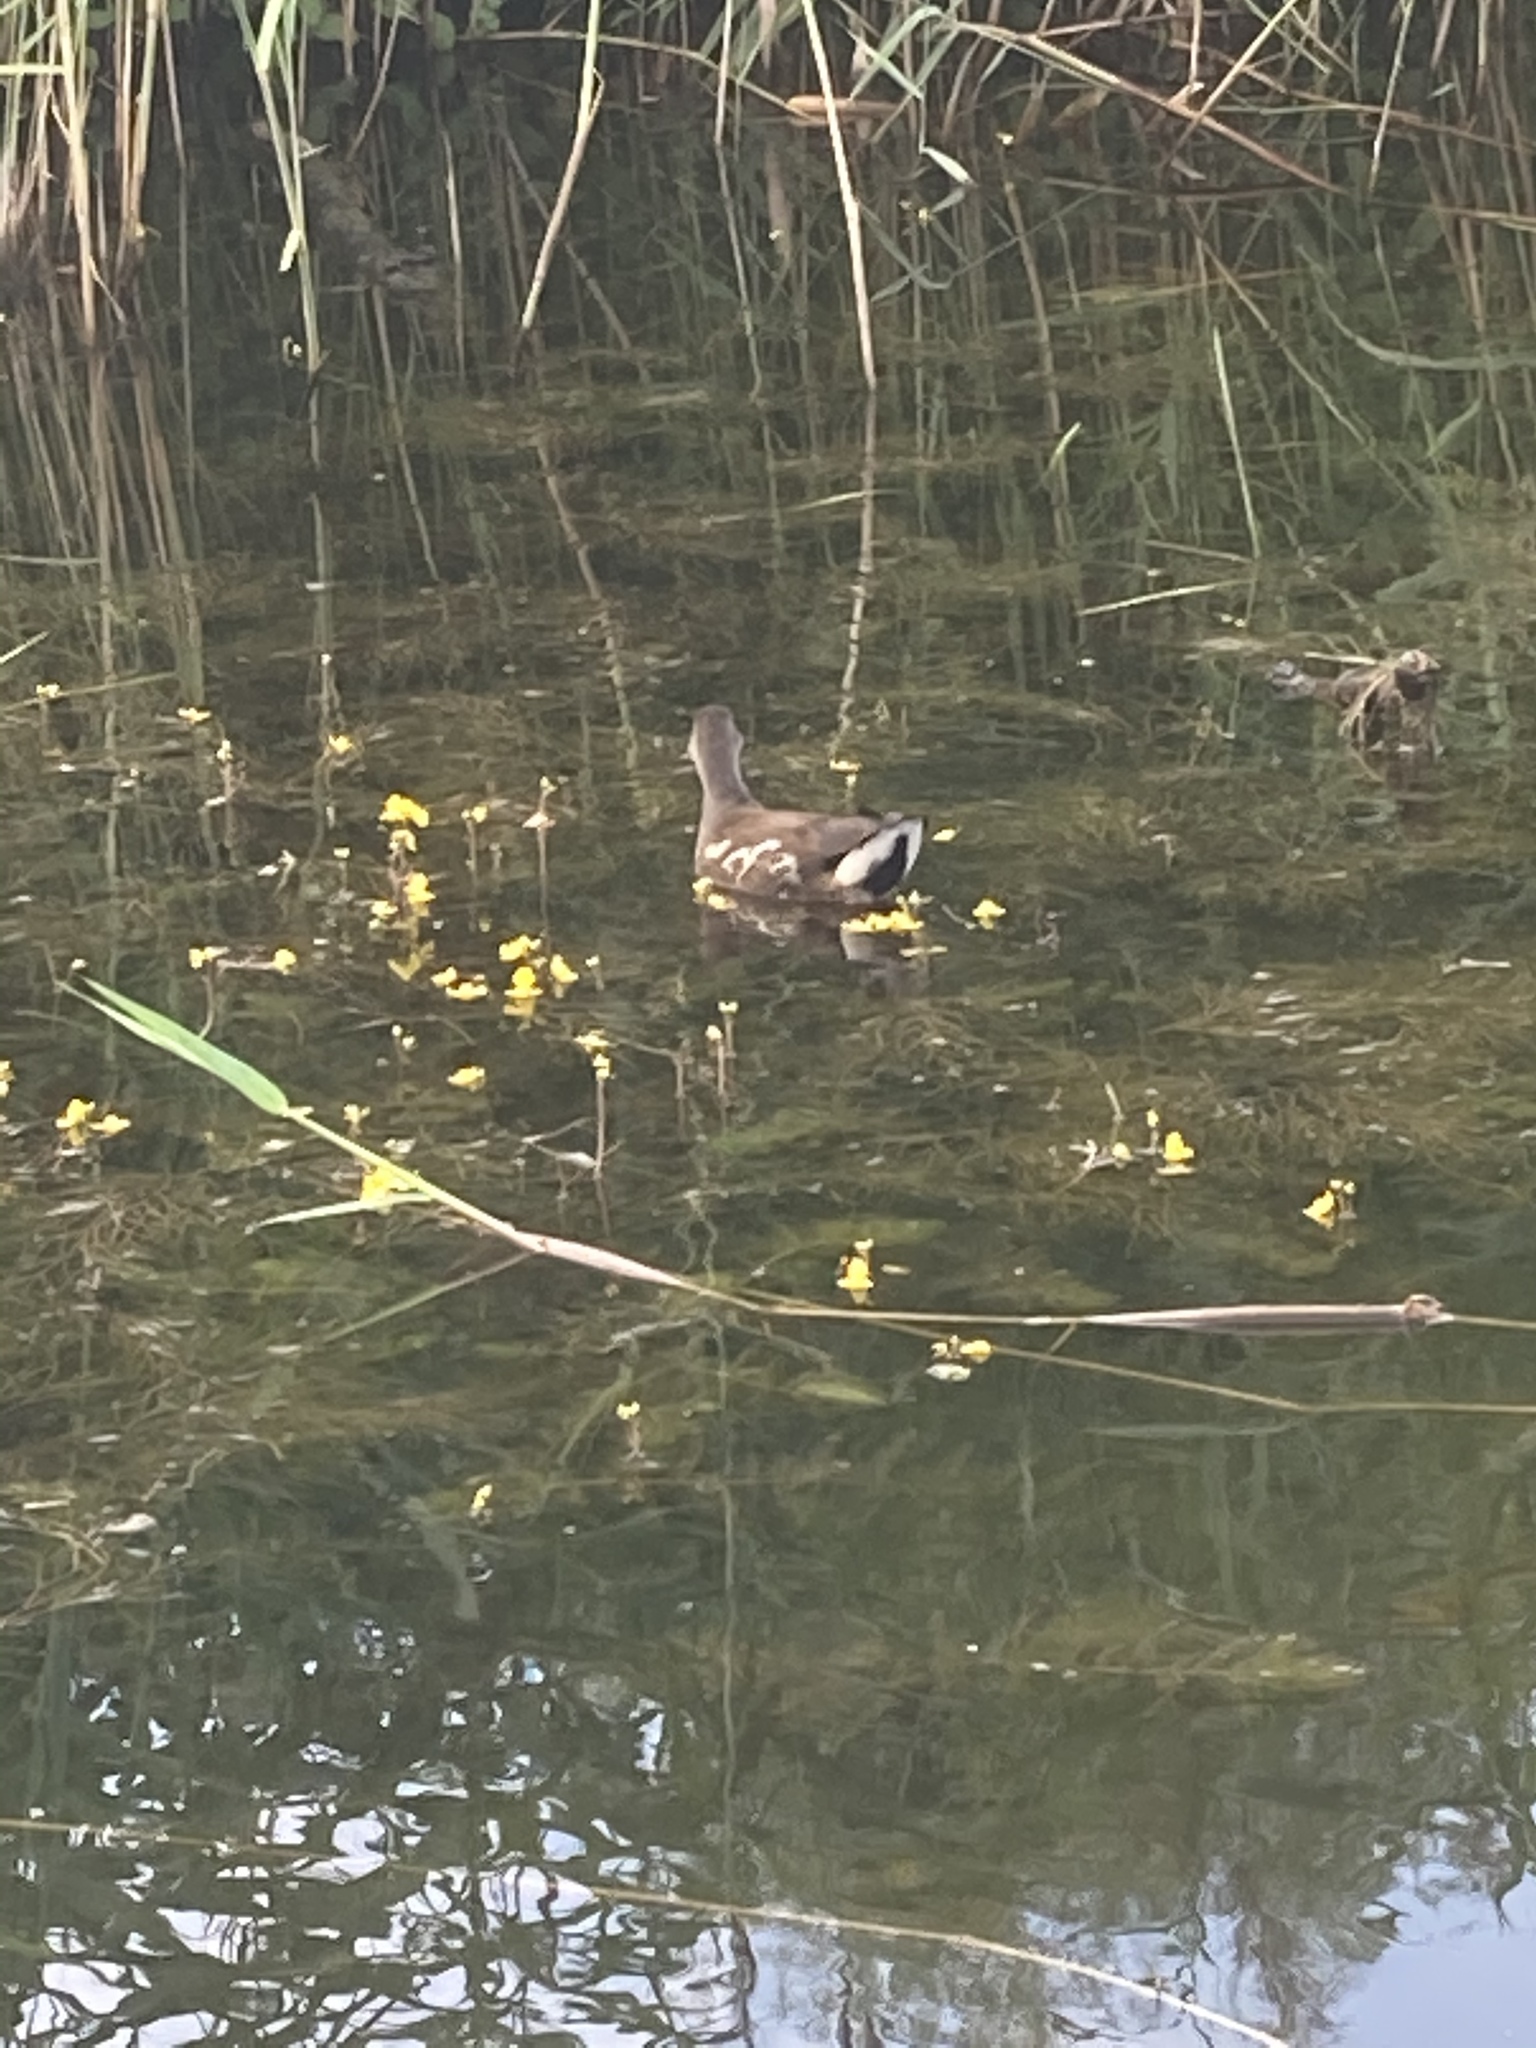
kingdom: Animalia
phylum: Chordata
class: Aves
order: Gruiformes
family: Rallidae
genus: Gallinula
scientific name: Gallinula chloropus
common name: Common moorhen
